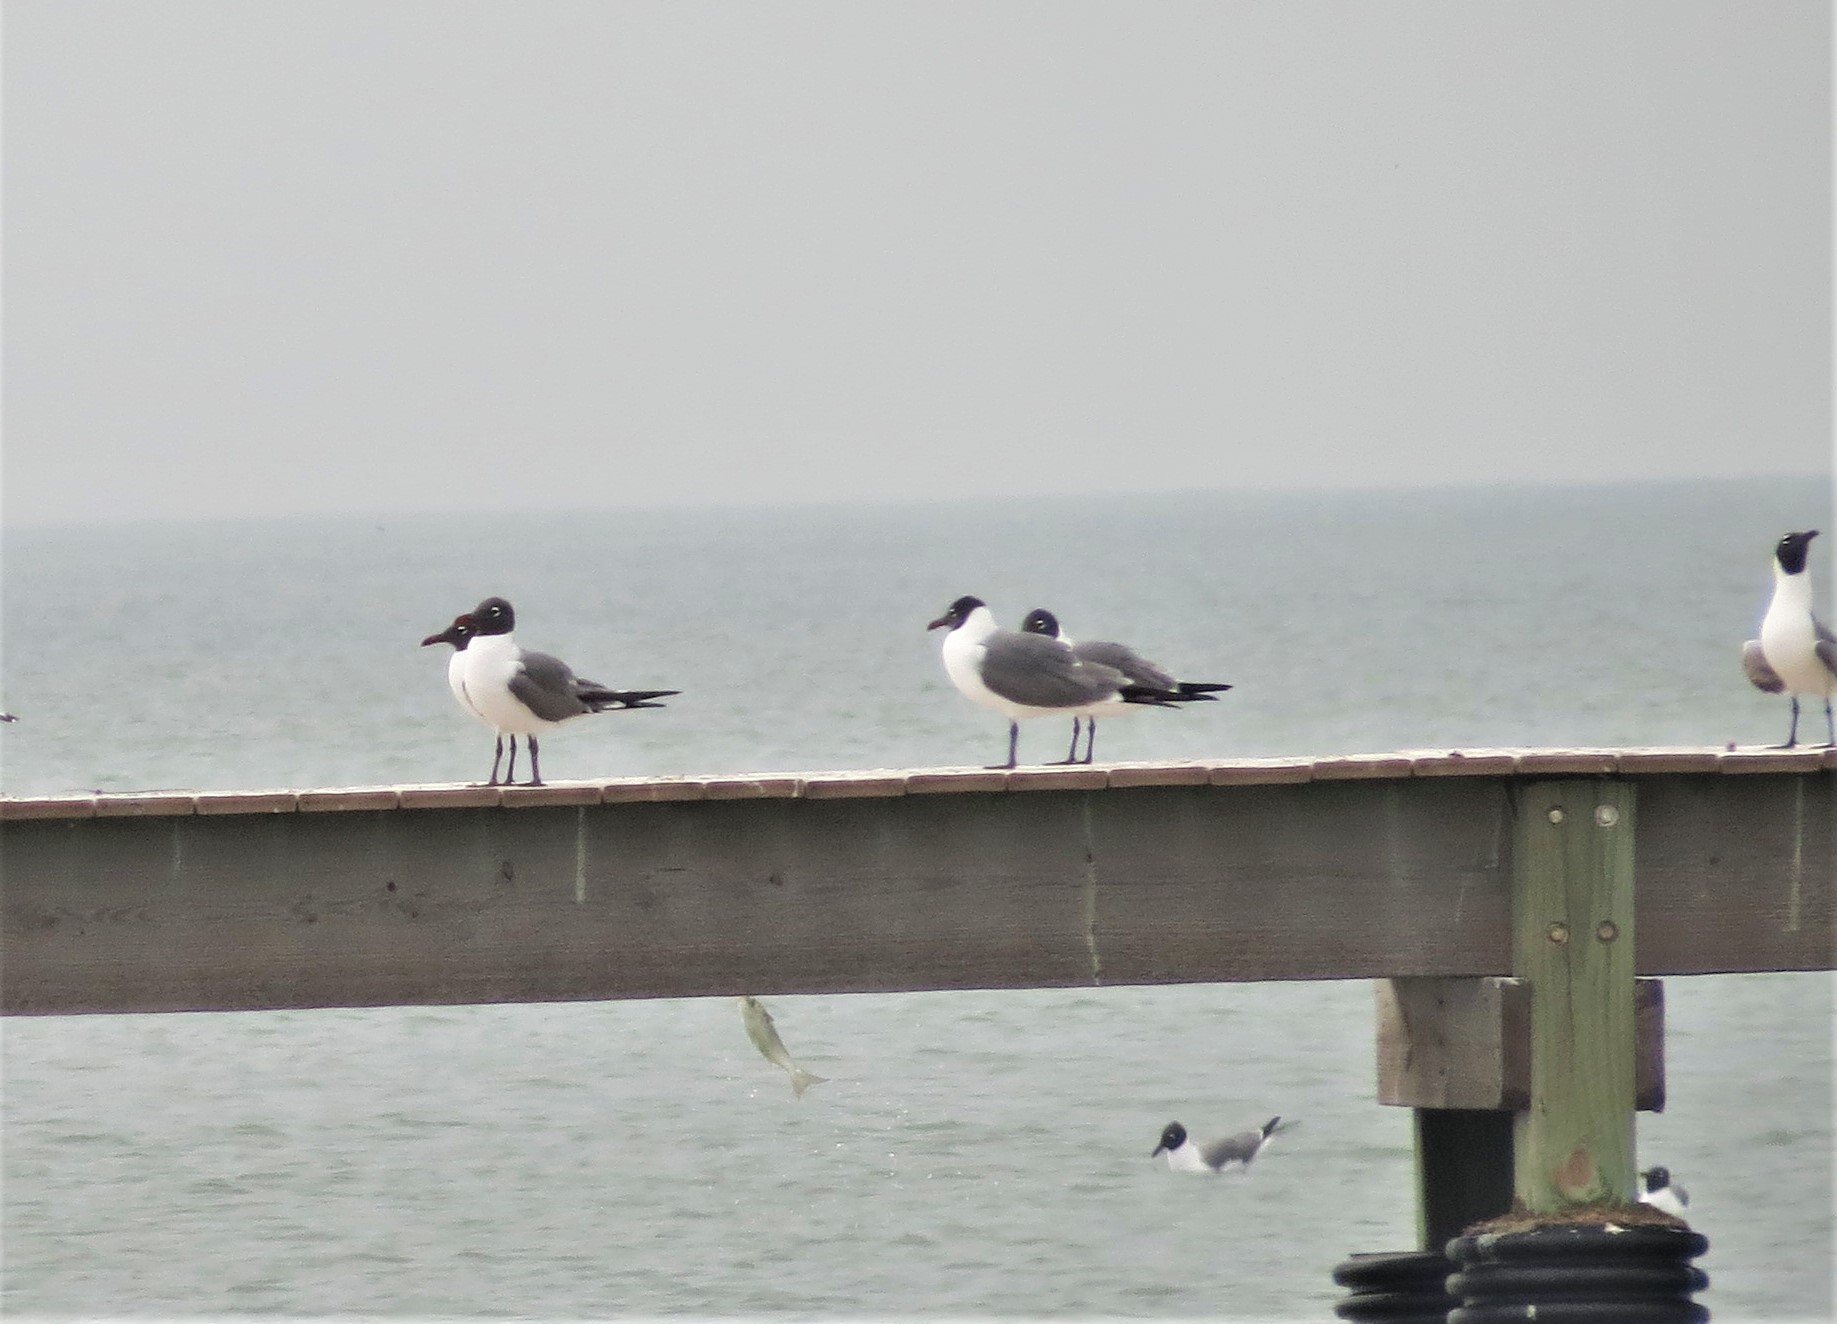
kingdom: Animalia
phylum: Chordata
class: Aves
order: Charadriiformes
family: Laridae
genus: Leucophaeus
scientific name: Leucophaeus atricilla
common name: Laughing gull
